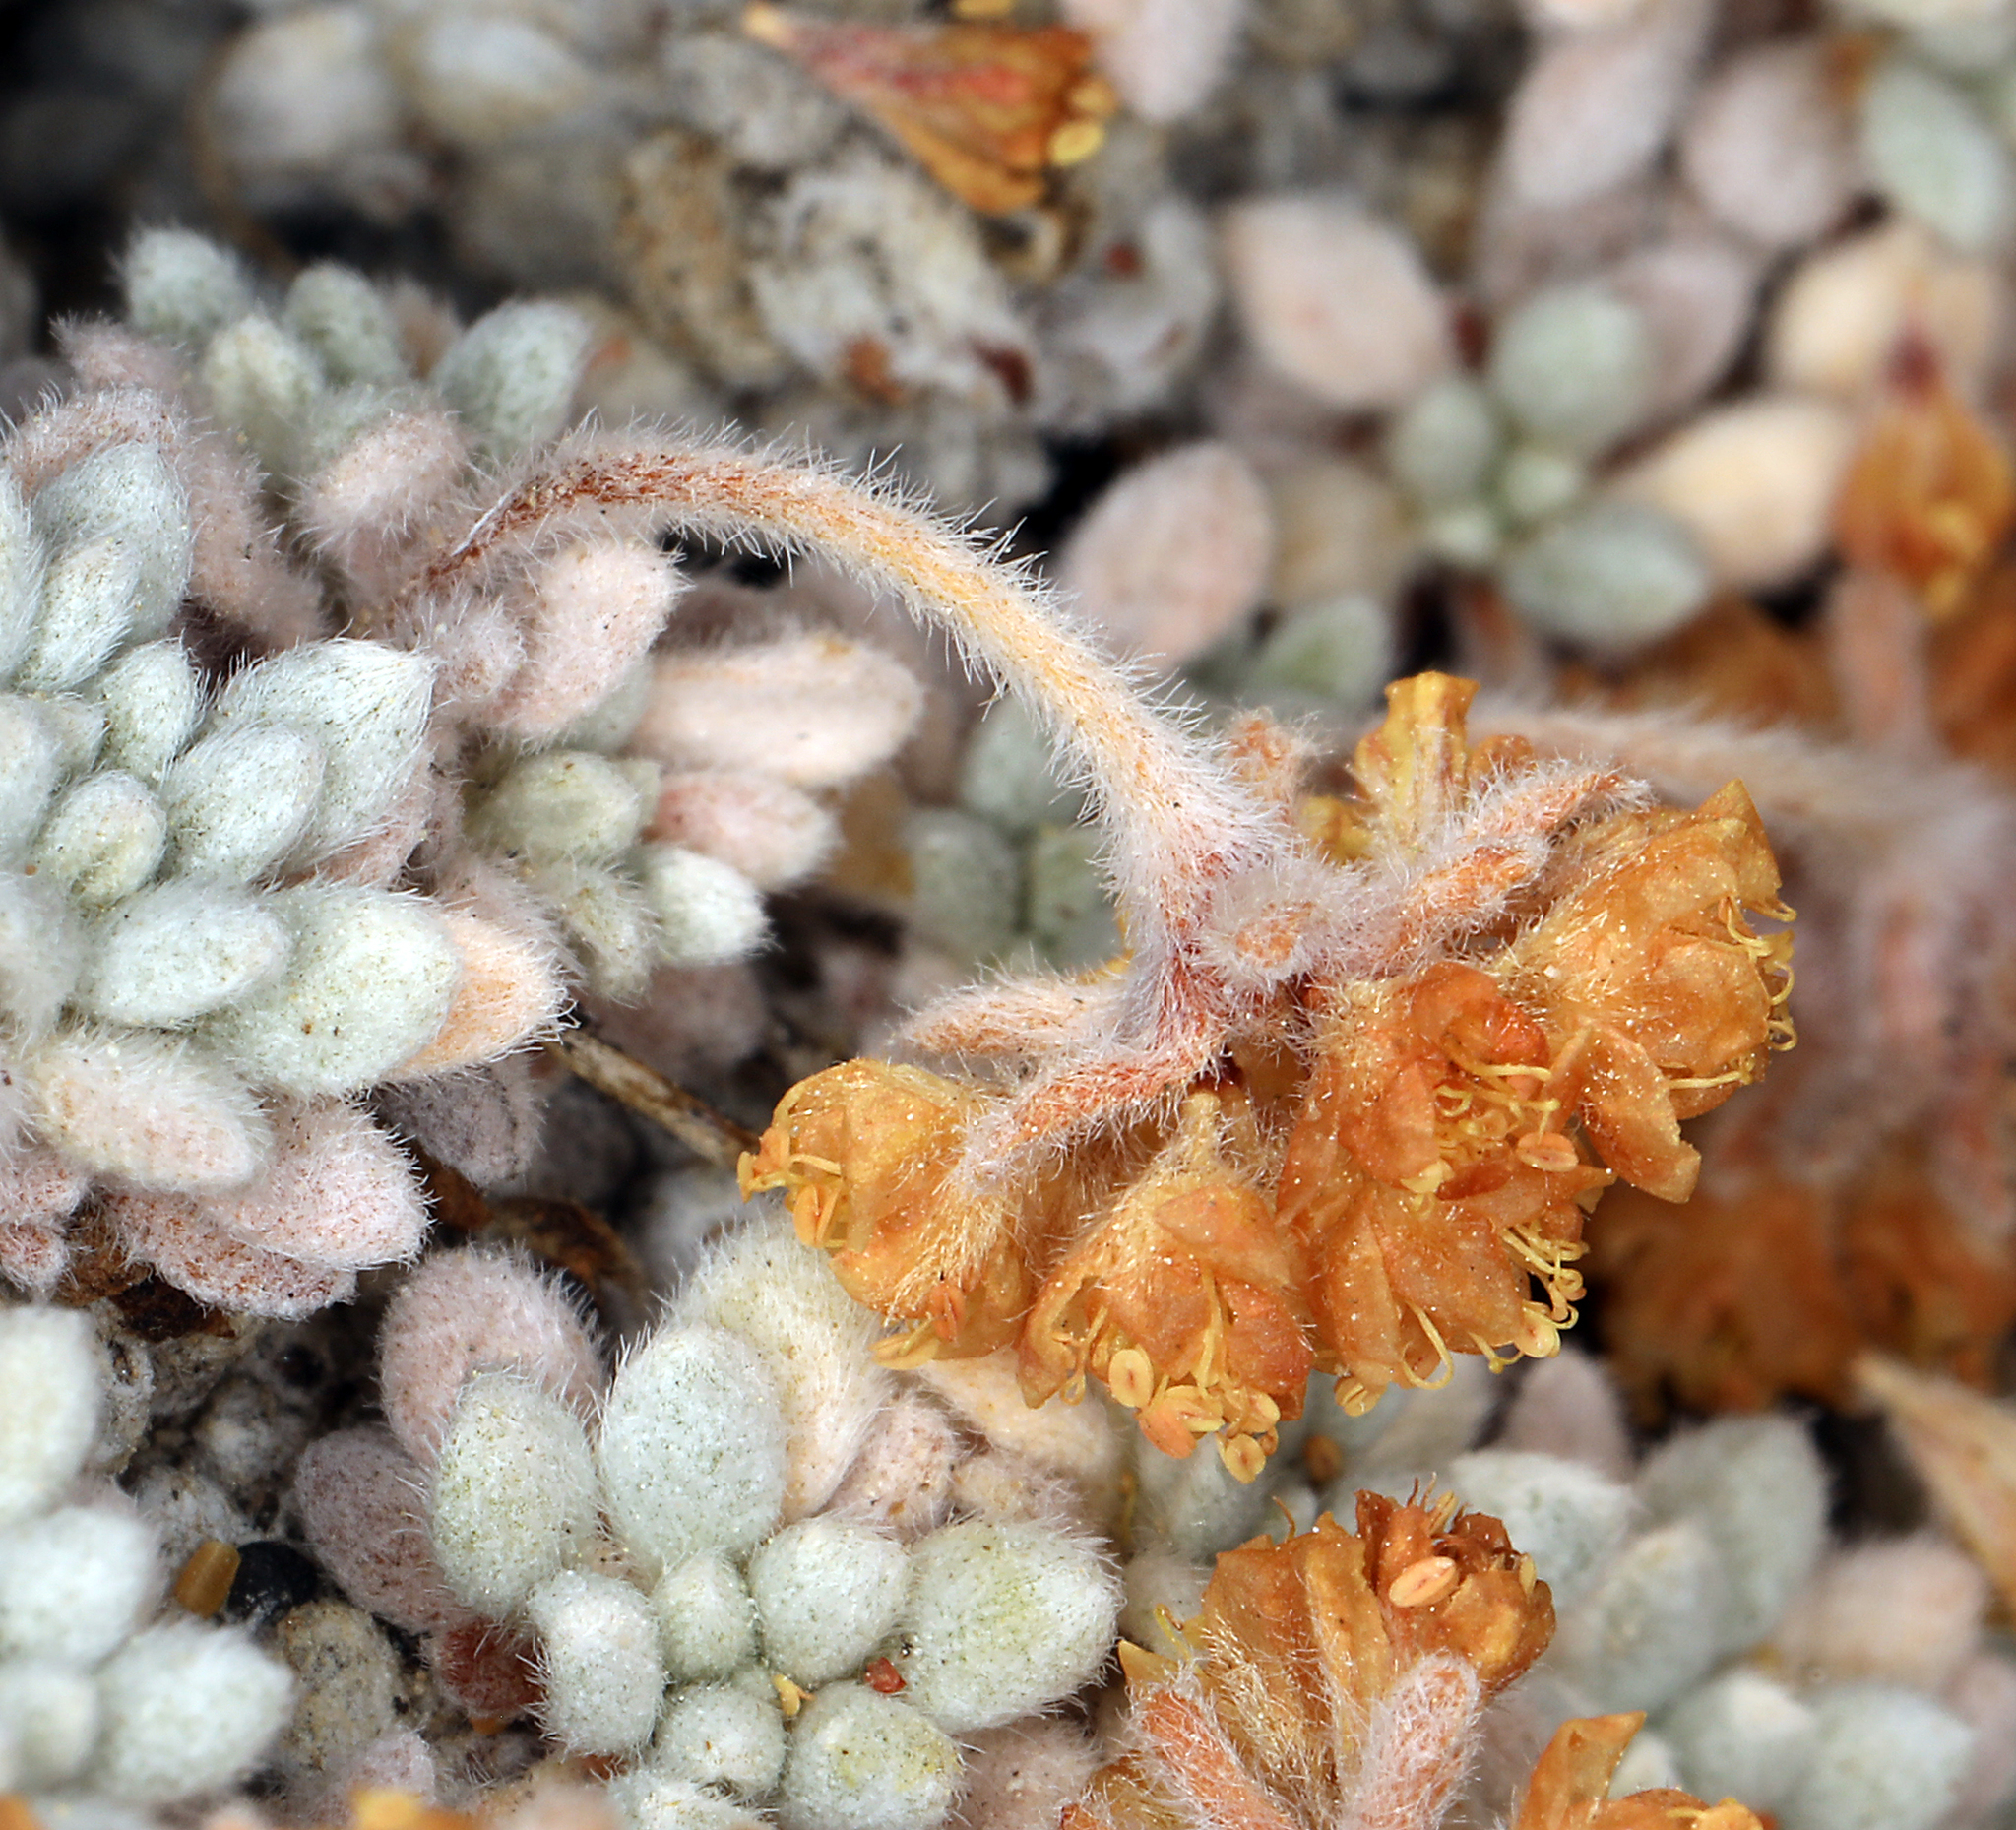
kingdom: Plantae
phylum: Tracheophyta
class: Magnoliopsida
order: Caryophyllales
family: Polygonaceae
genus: Eriogonum
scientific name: Eriogonum caespitosum
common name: Matted wild buckwheat
